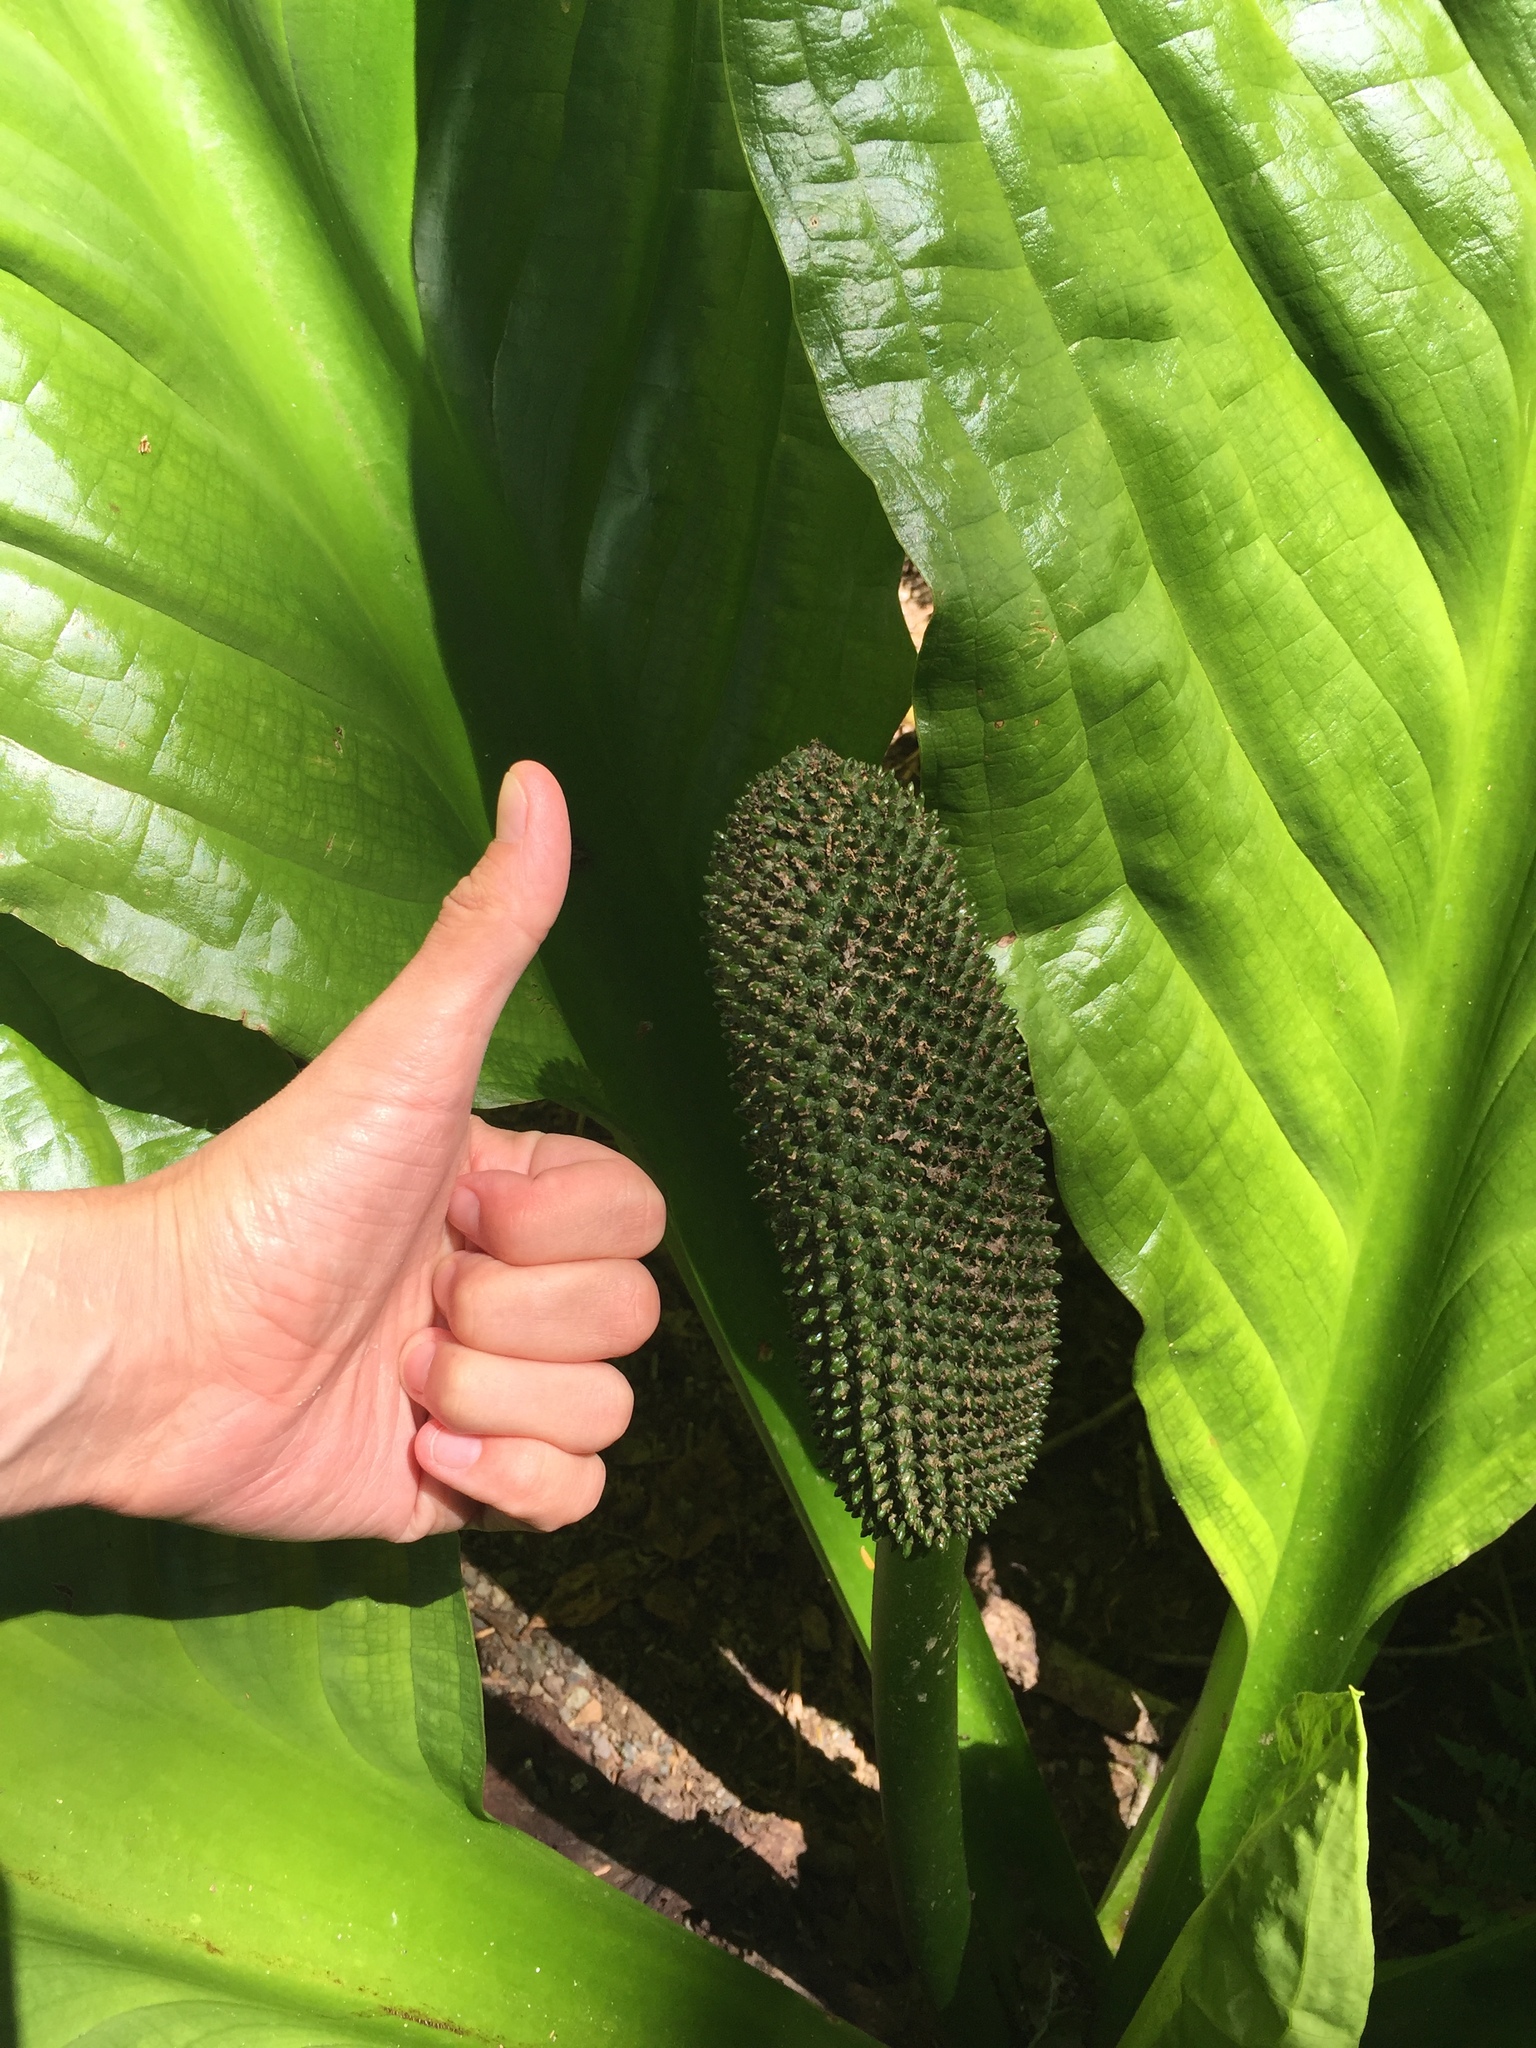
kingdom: Plantae
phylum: Tracheophyta
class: Liliopsida
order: Alismatales
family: Araceae
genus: Lysichiton
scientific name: Lysichiton americanus
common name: American skunk cabbage
